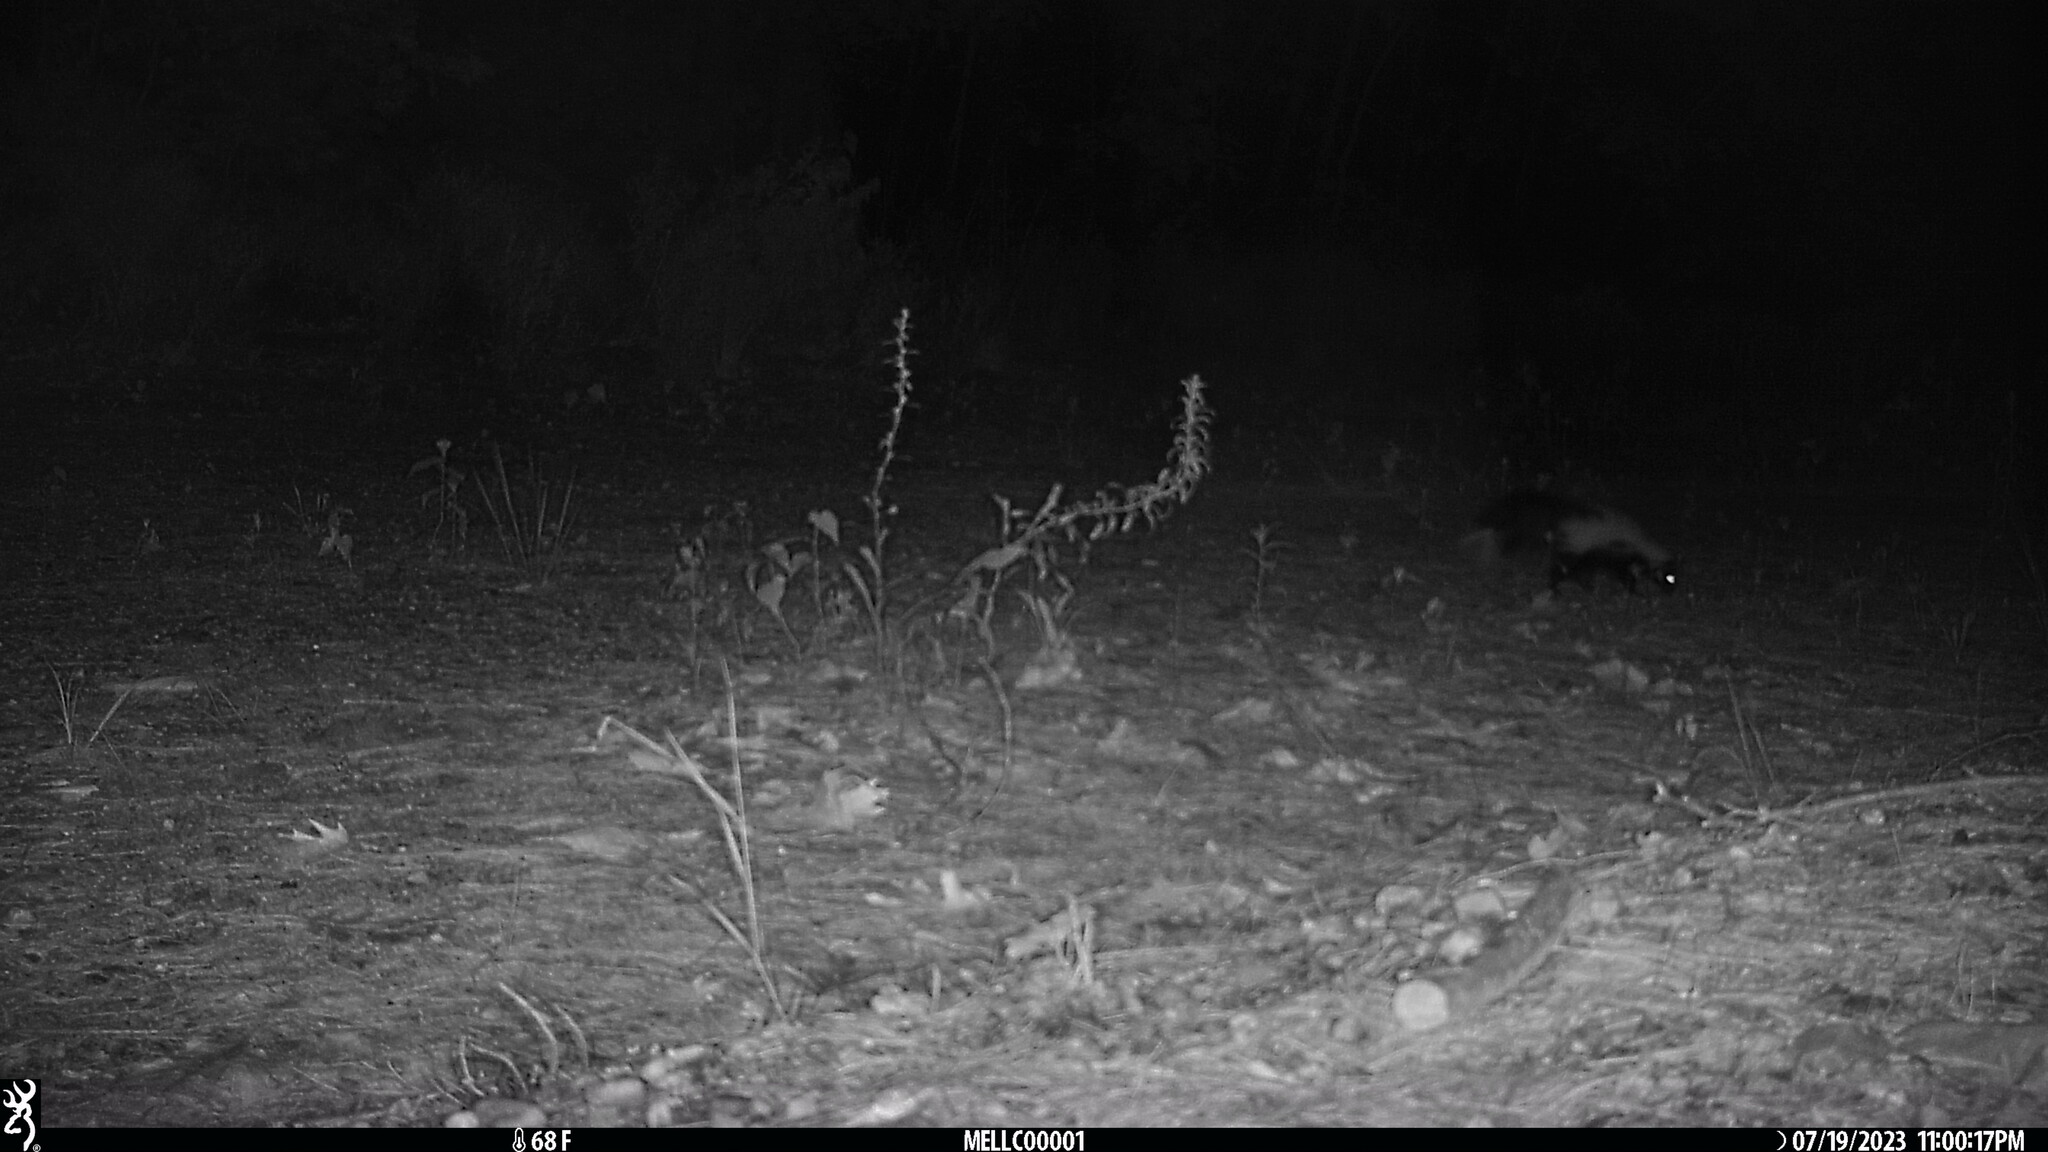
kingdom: Animalia
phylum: Chordata
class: Mammalia
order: Carnivora
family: Mephitidae
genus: Mephitis
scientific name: Mephitis mephitis
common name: Striped skunk
